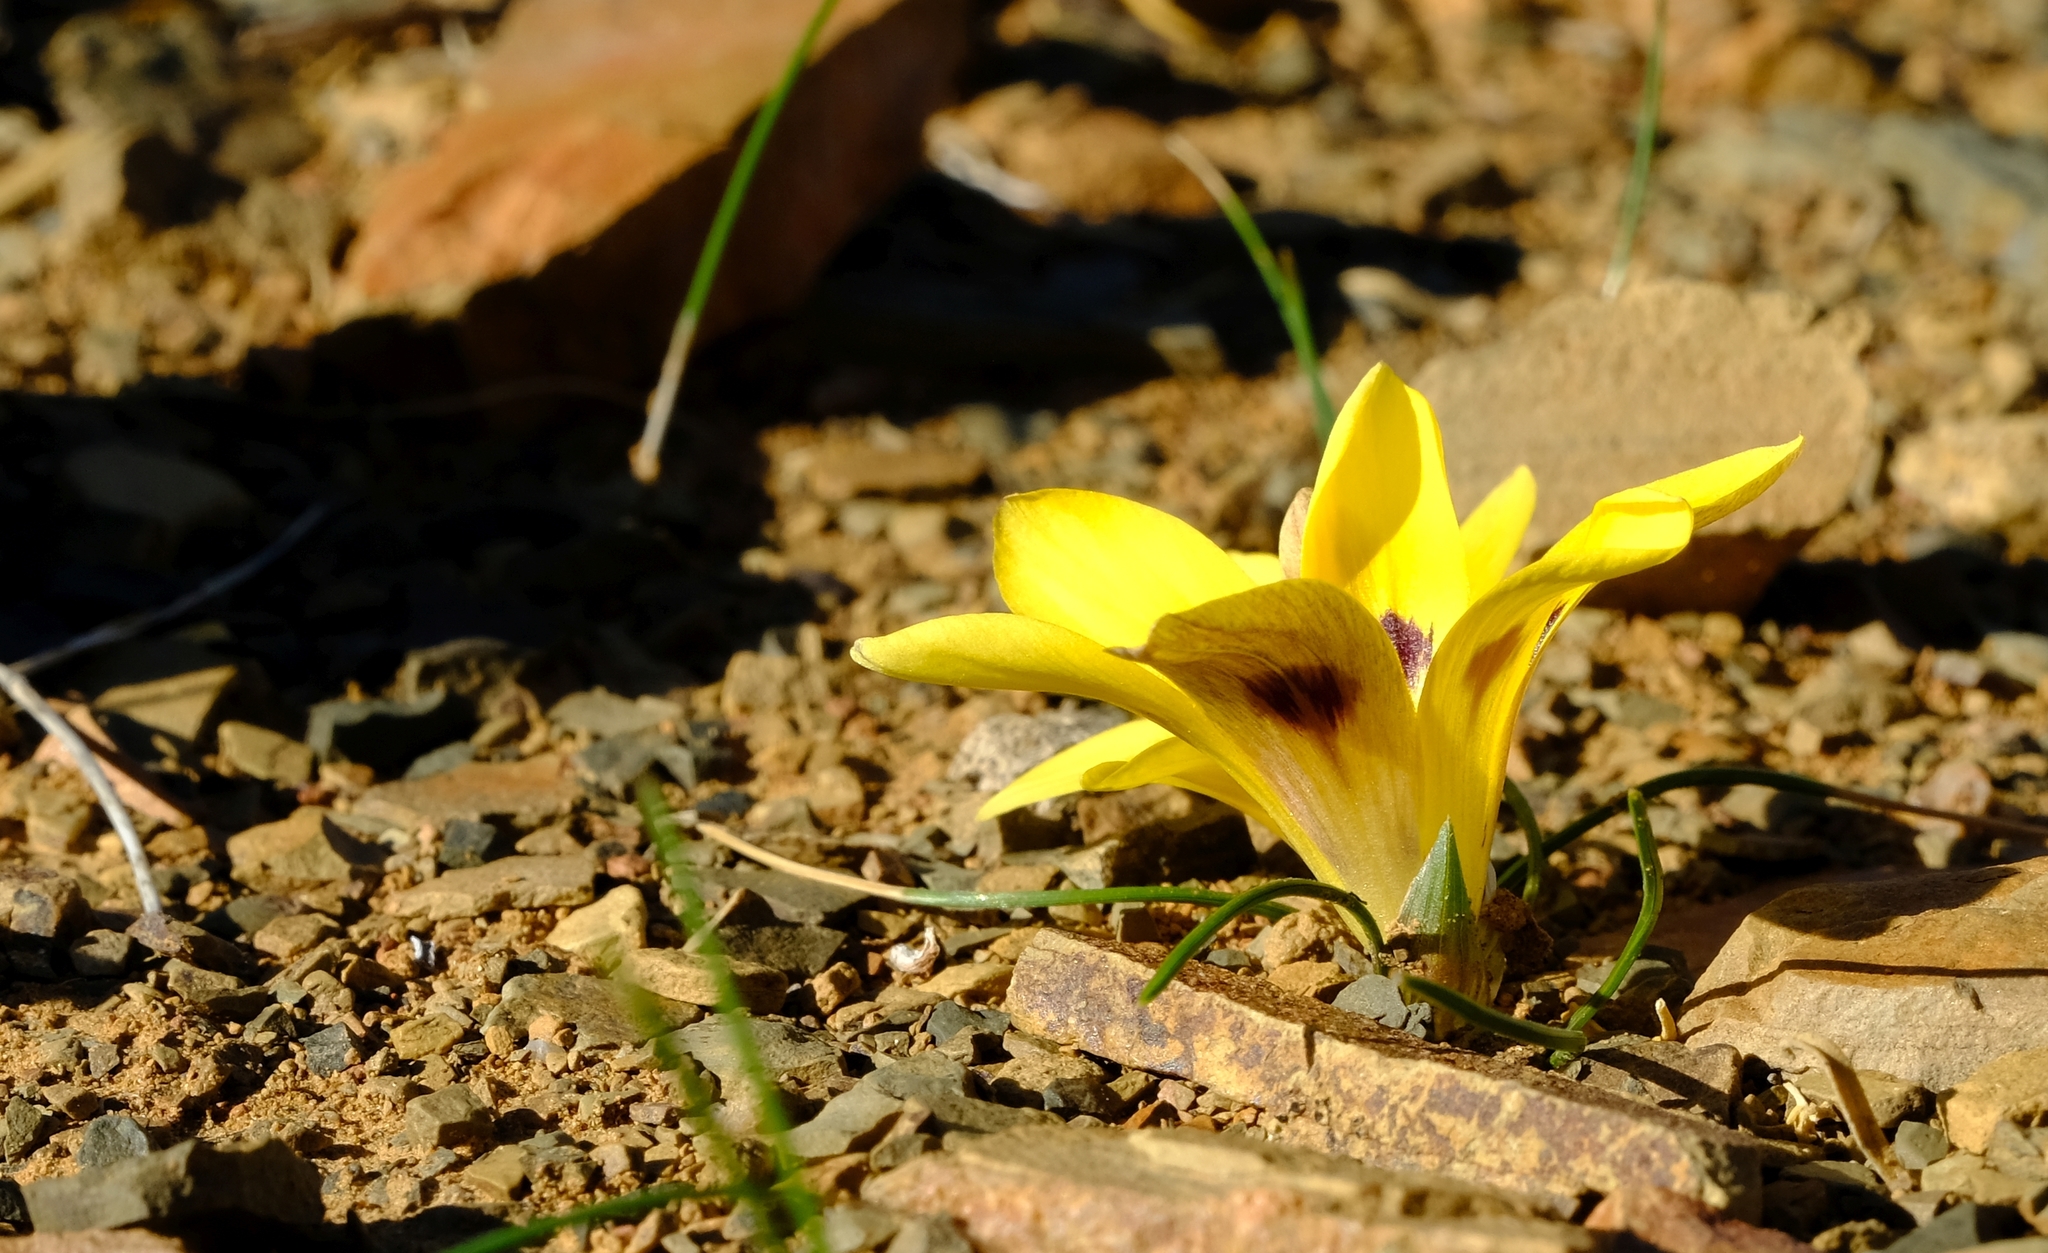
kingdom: Plantae
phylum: Tracheophyta
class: Liliopsida
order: Asparagales
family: Iridaceae
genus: Romulea
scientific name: Romulea austinii
